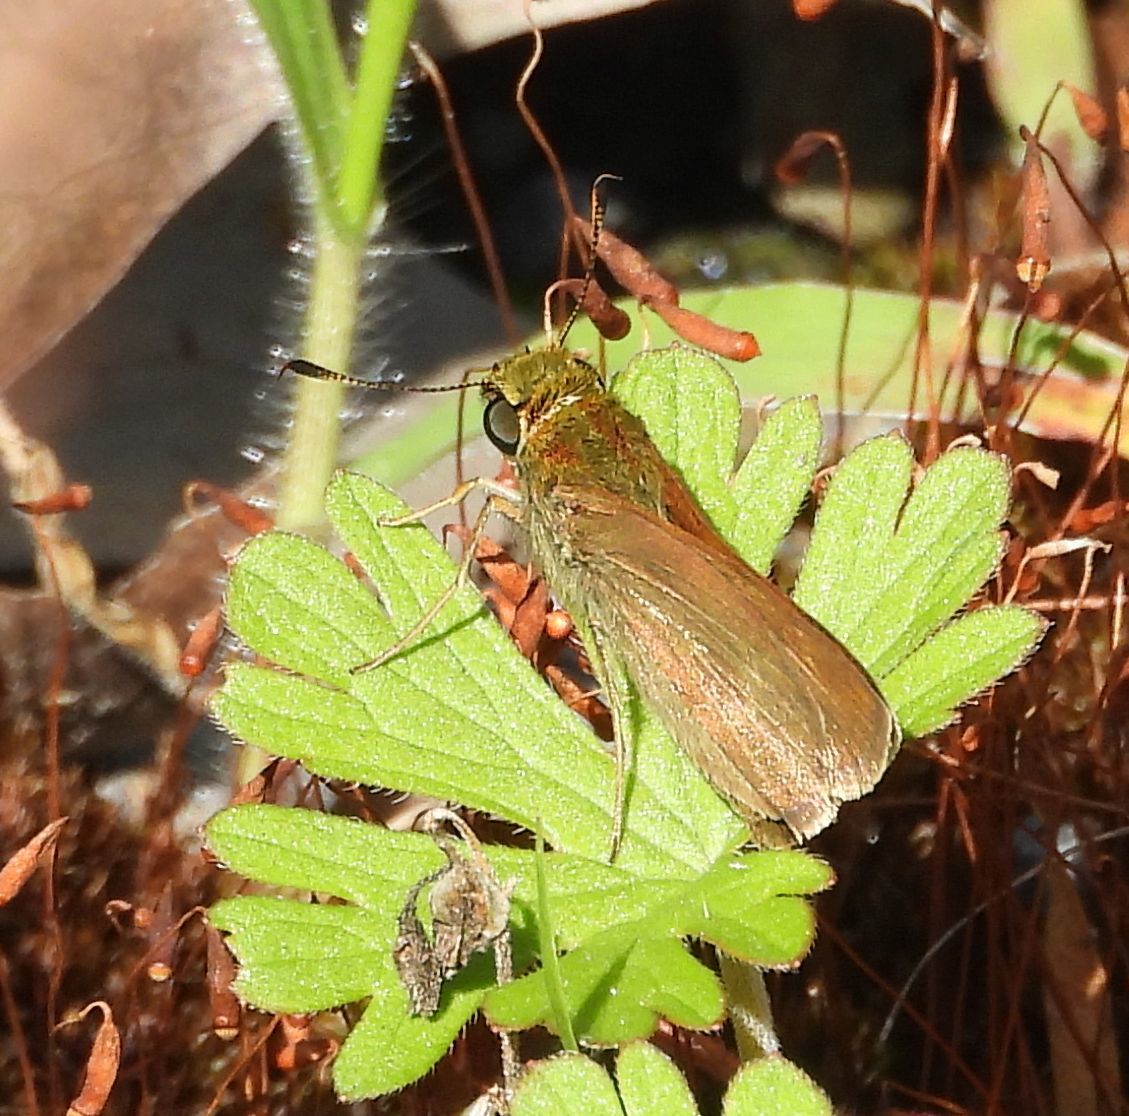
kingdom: Animalia
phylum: Arthropoda
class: Insecta
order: Lepidoptera
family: Hesperiidae
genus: Euphyes
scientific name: Euphyes vestris
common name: Dun skipper
